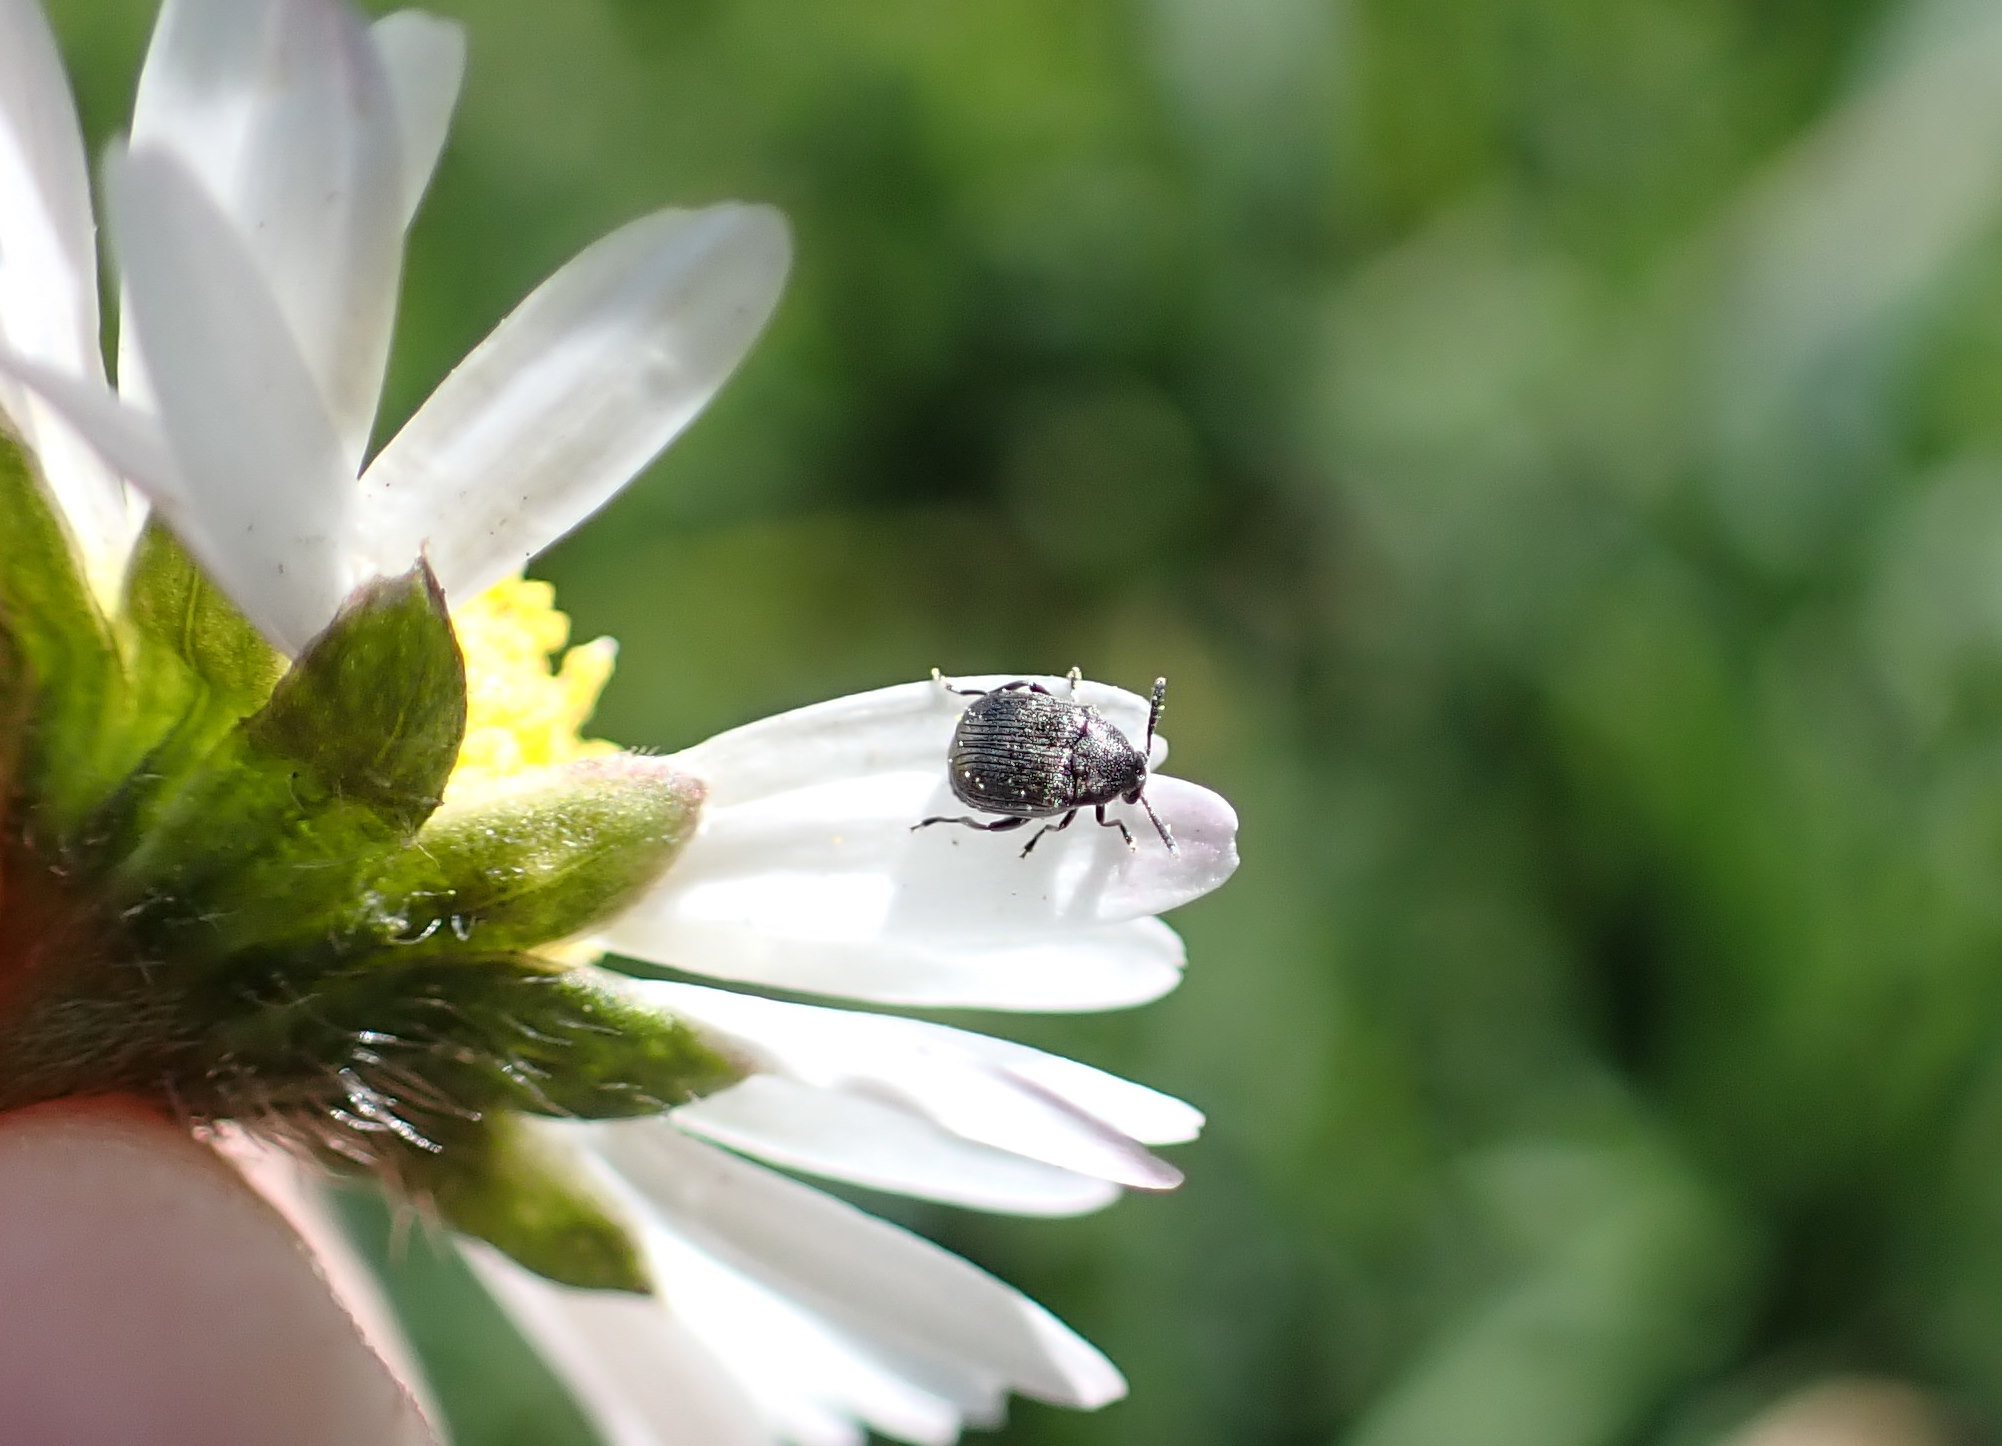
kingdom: Animalia
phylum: Arthropoda
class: Insecta
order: Coleoptera
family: Chrysomelidae
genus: Bruchidius
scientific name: Bruchidius villosus
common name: Scotch broom bruchid
